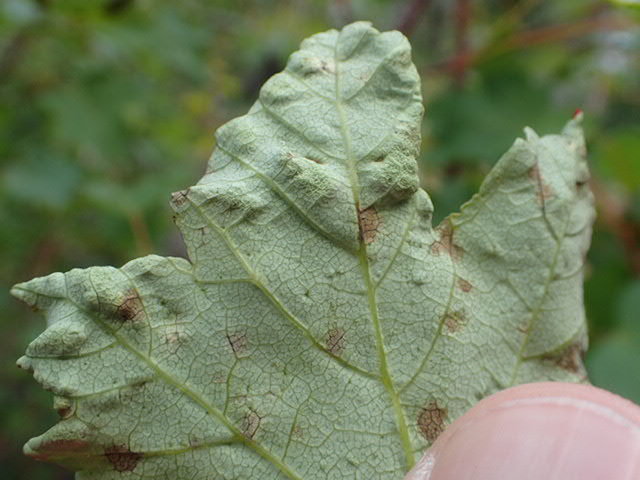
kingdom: Animalia
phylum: Arthropoda
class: Arachnida
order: Trombidiformes
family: Eriophyidae
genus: Aceria
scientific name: Aceria
